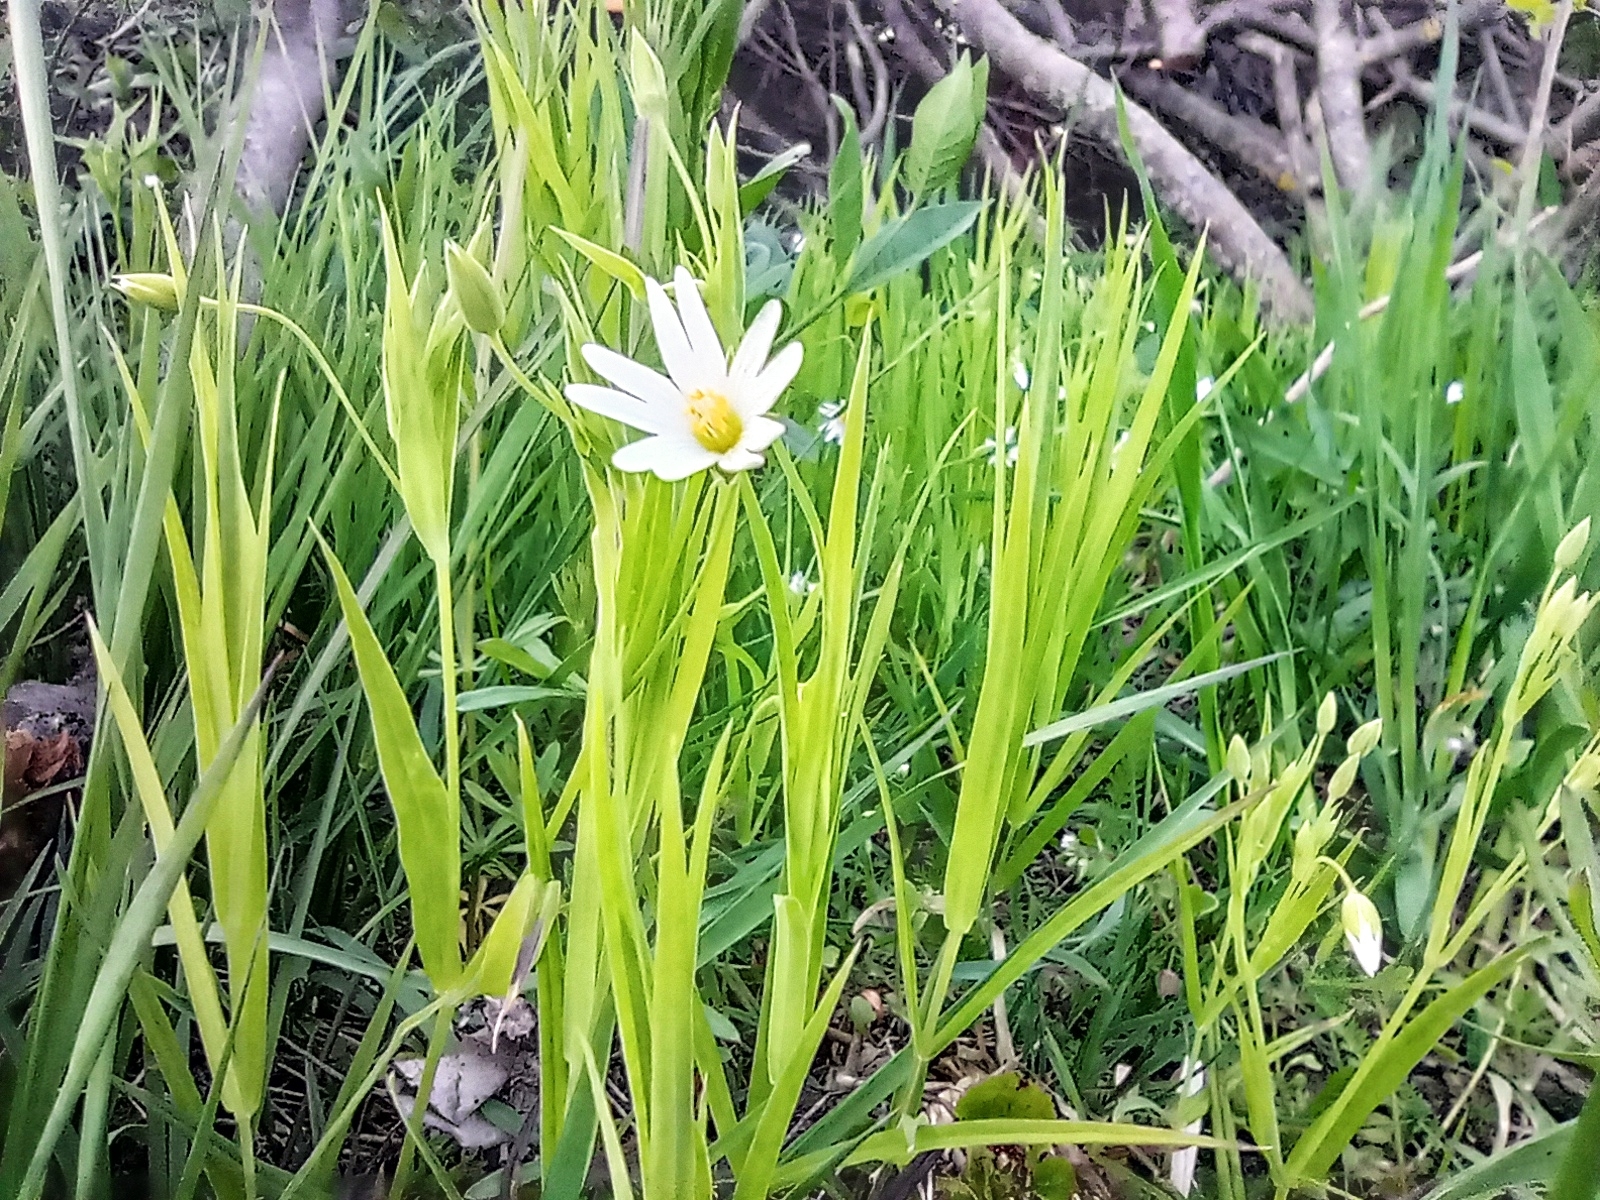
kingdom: Plantae
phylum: Tracheophyta
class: Magnoliopsida
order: Caryophyllales
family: Caryophyllaceae
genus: Rabelera
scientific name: Rabelera holostea
